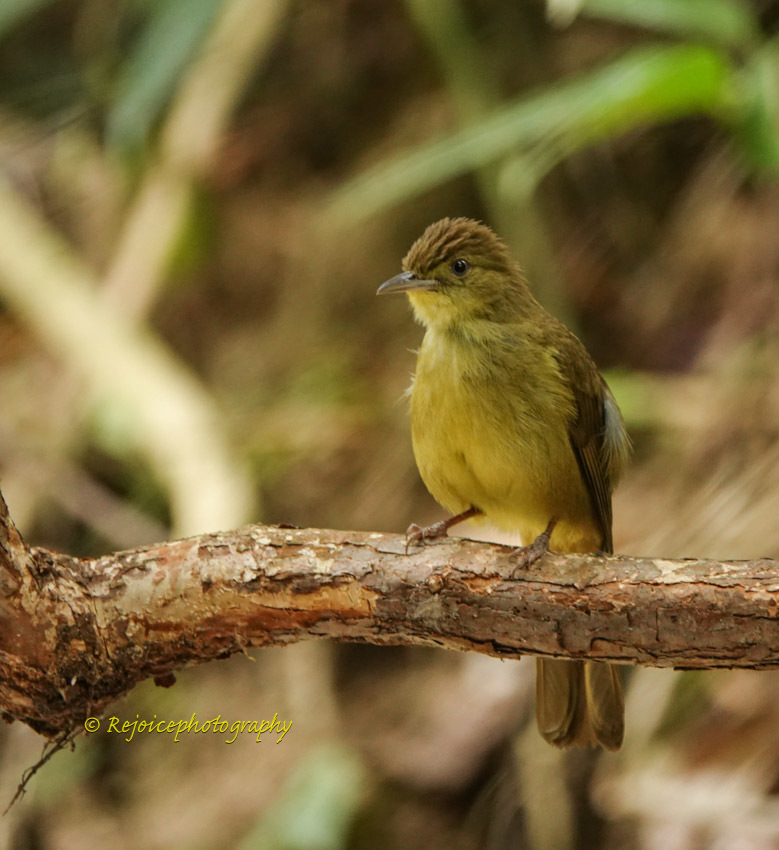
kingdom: Animalia
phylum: Chordata
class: Aves
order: Passeriformes
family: Pycnonotidae
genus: Iole
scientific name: Iole virescens
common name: Olive bulbul
